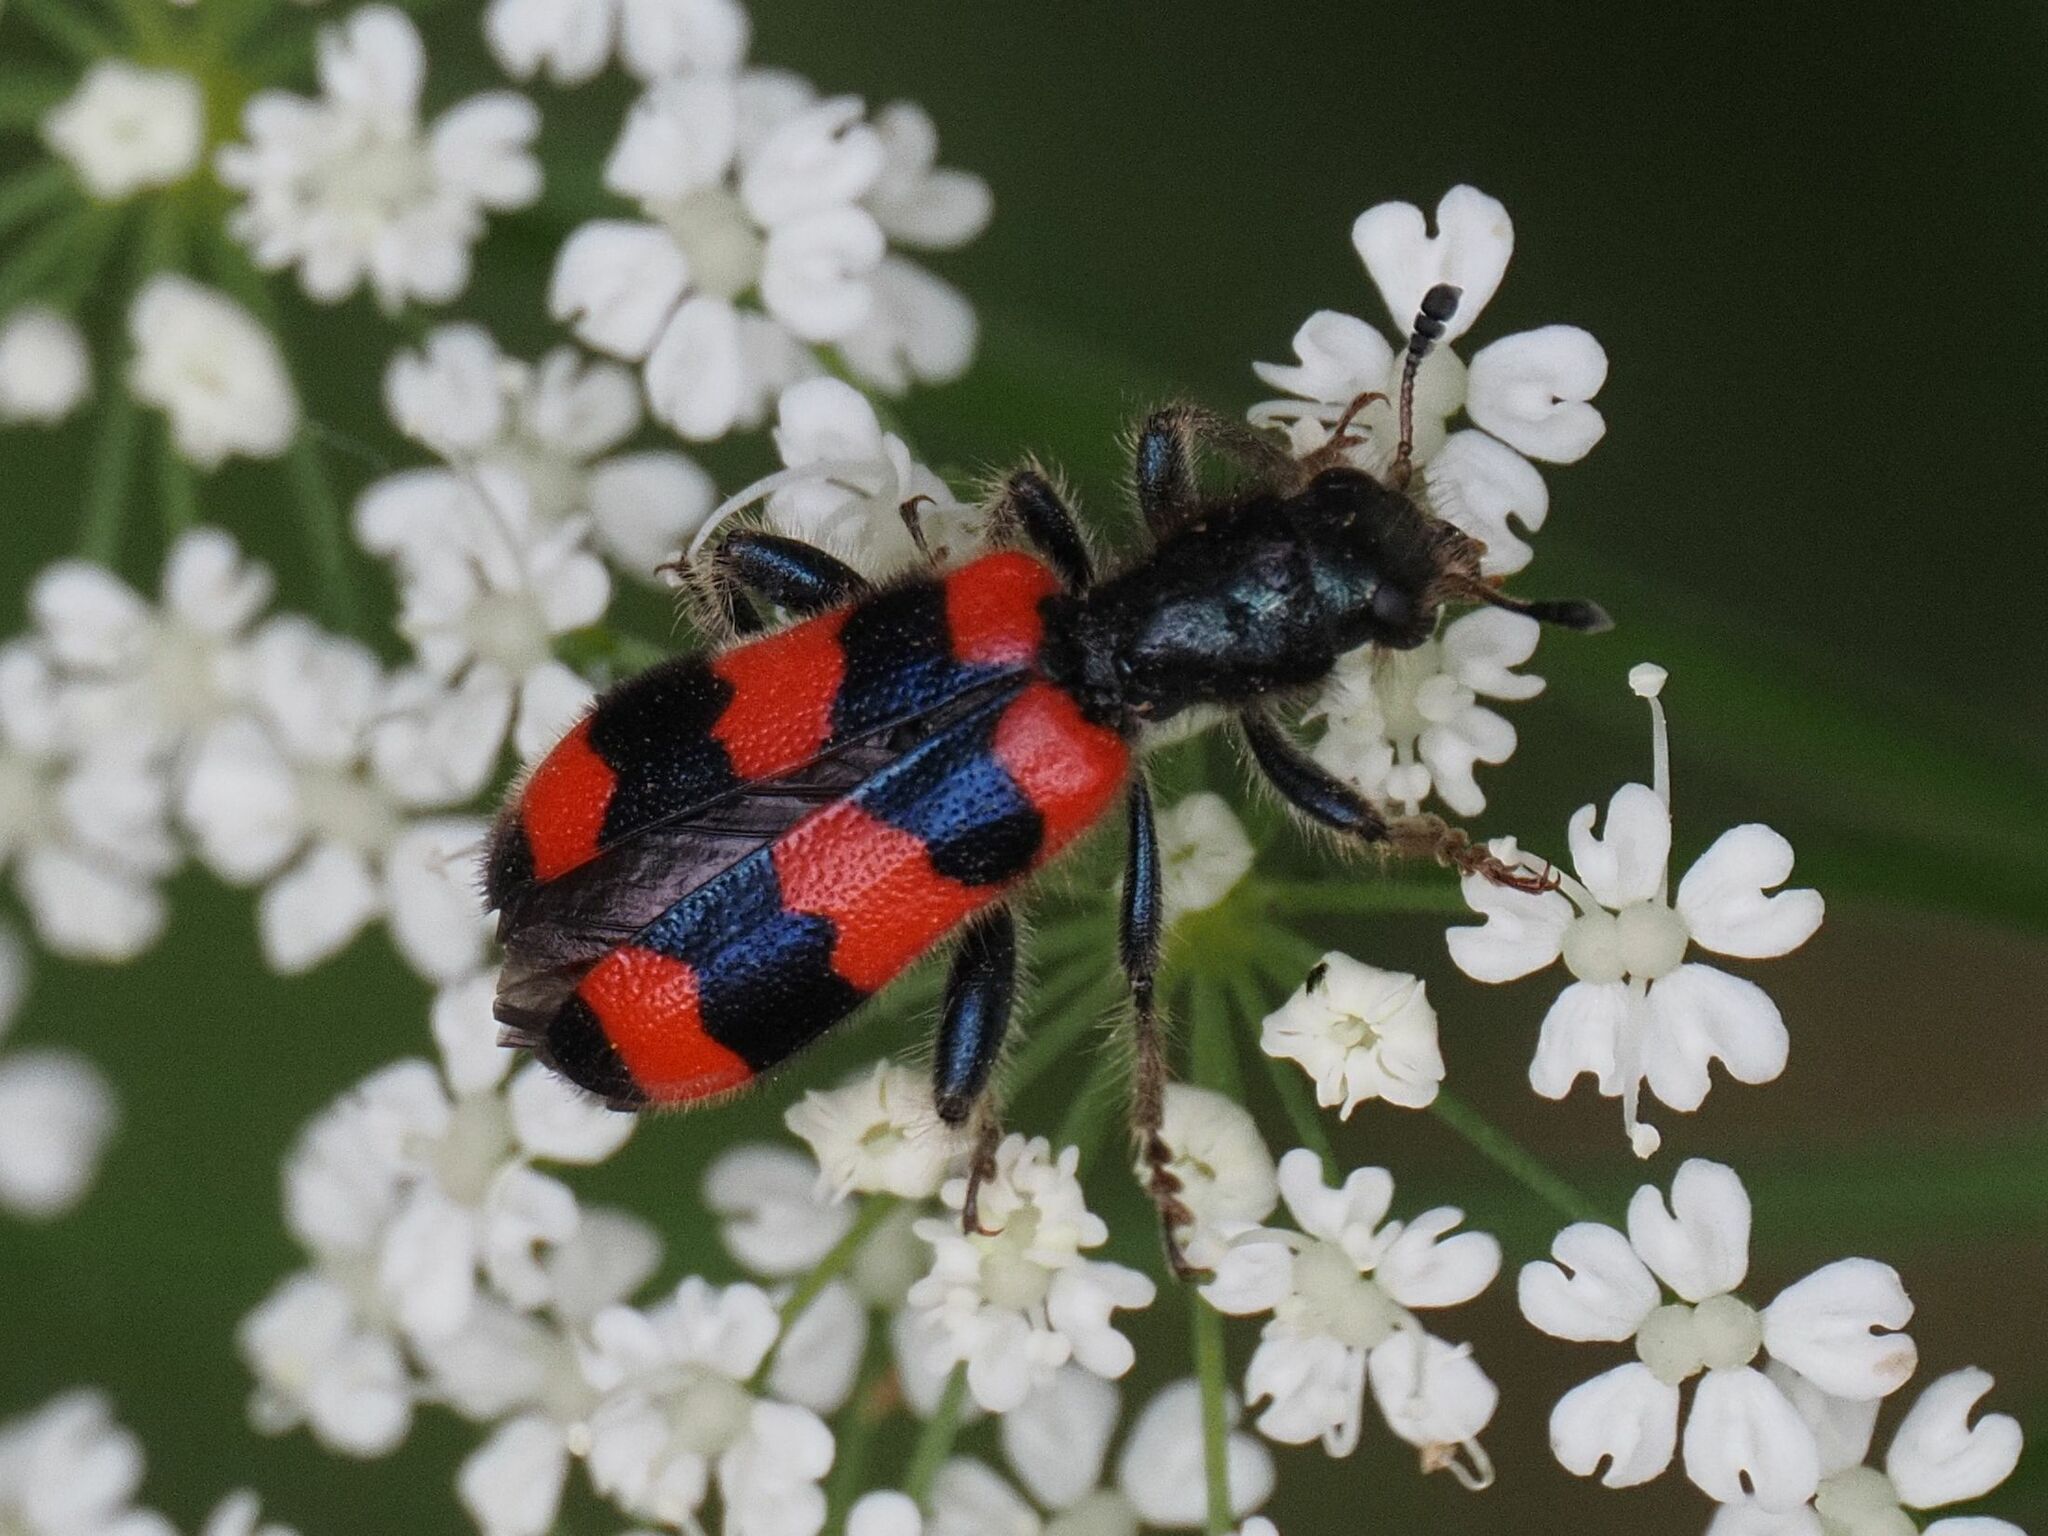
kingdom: Animalia
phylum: Arthropoda
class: Insecta
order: Coleoptera
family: Cleridae
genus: Trichodes
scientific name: Trichodes apiarius
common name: Bee-eating beetle
